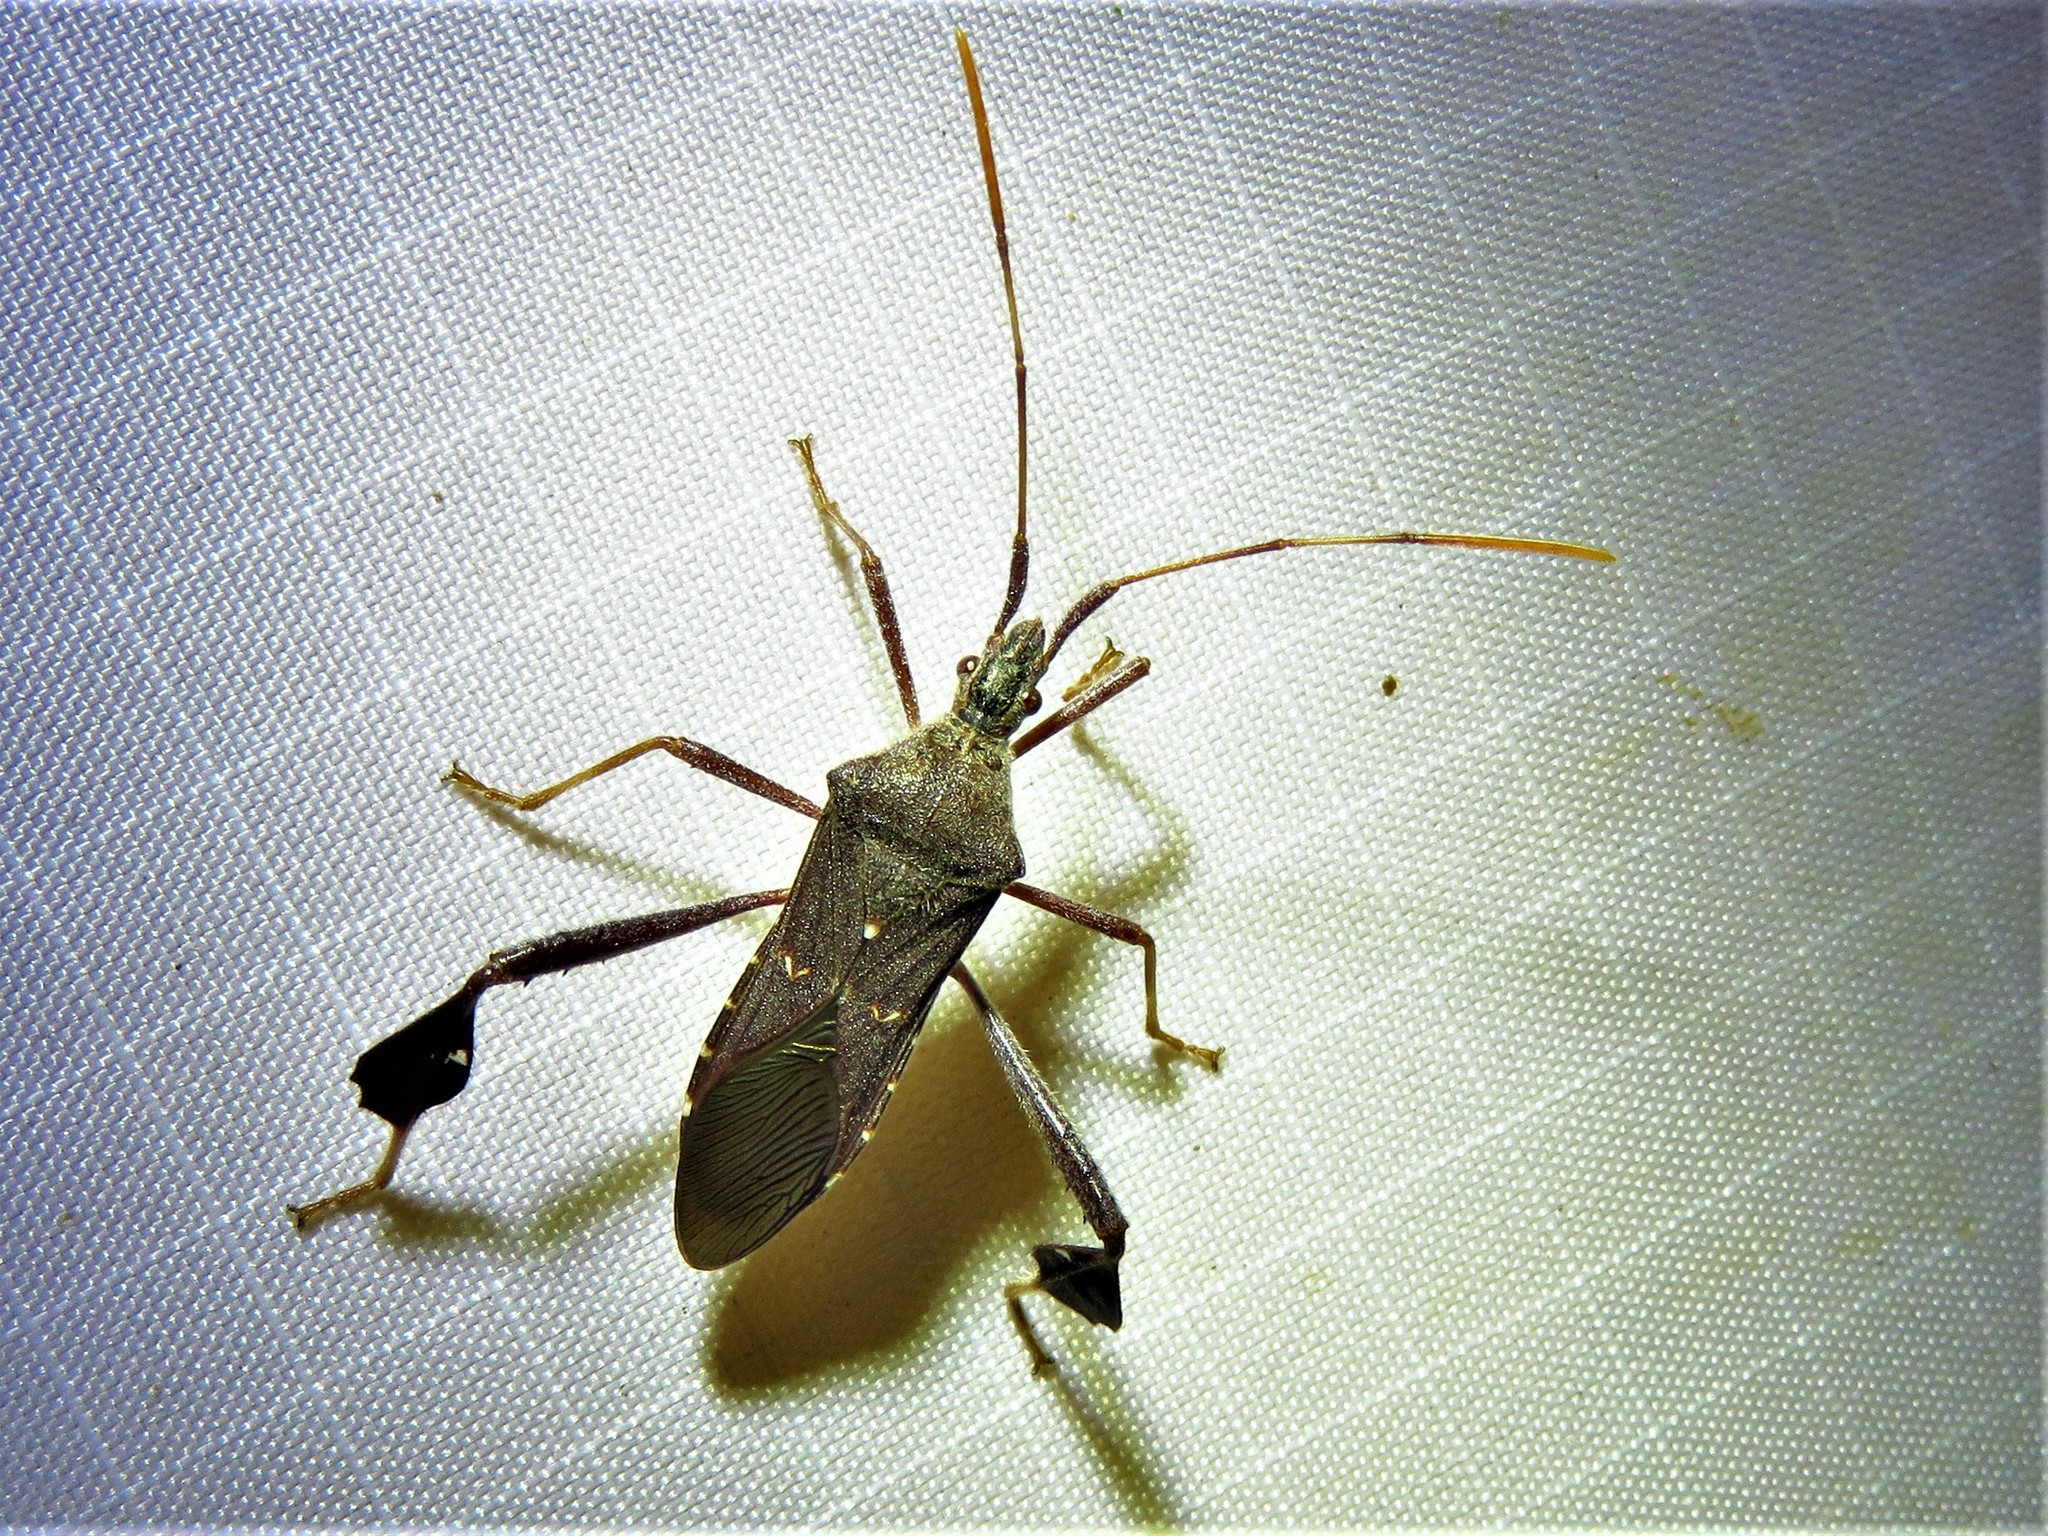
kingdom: Animalia
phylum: Arthropoda
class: Insecta
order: Hemiptera
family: Coreidae
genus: Leptoglossus
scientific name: Leptoglossus oppositus
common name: Northern leaf-footed bug
